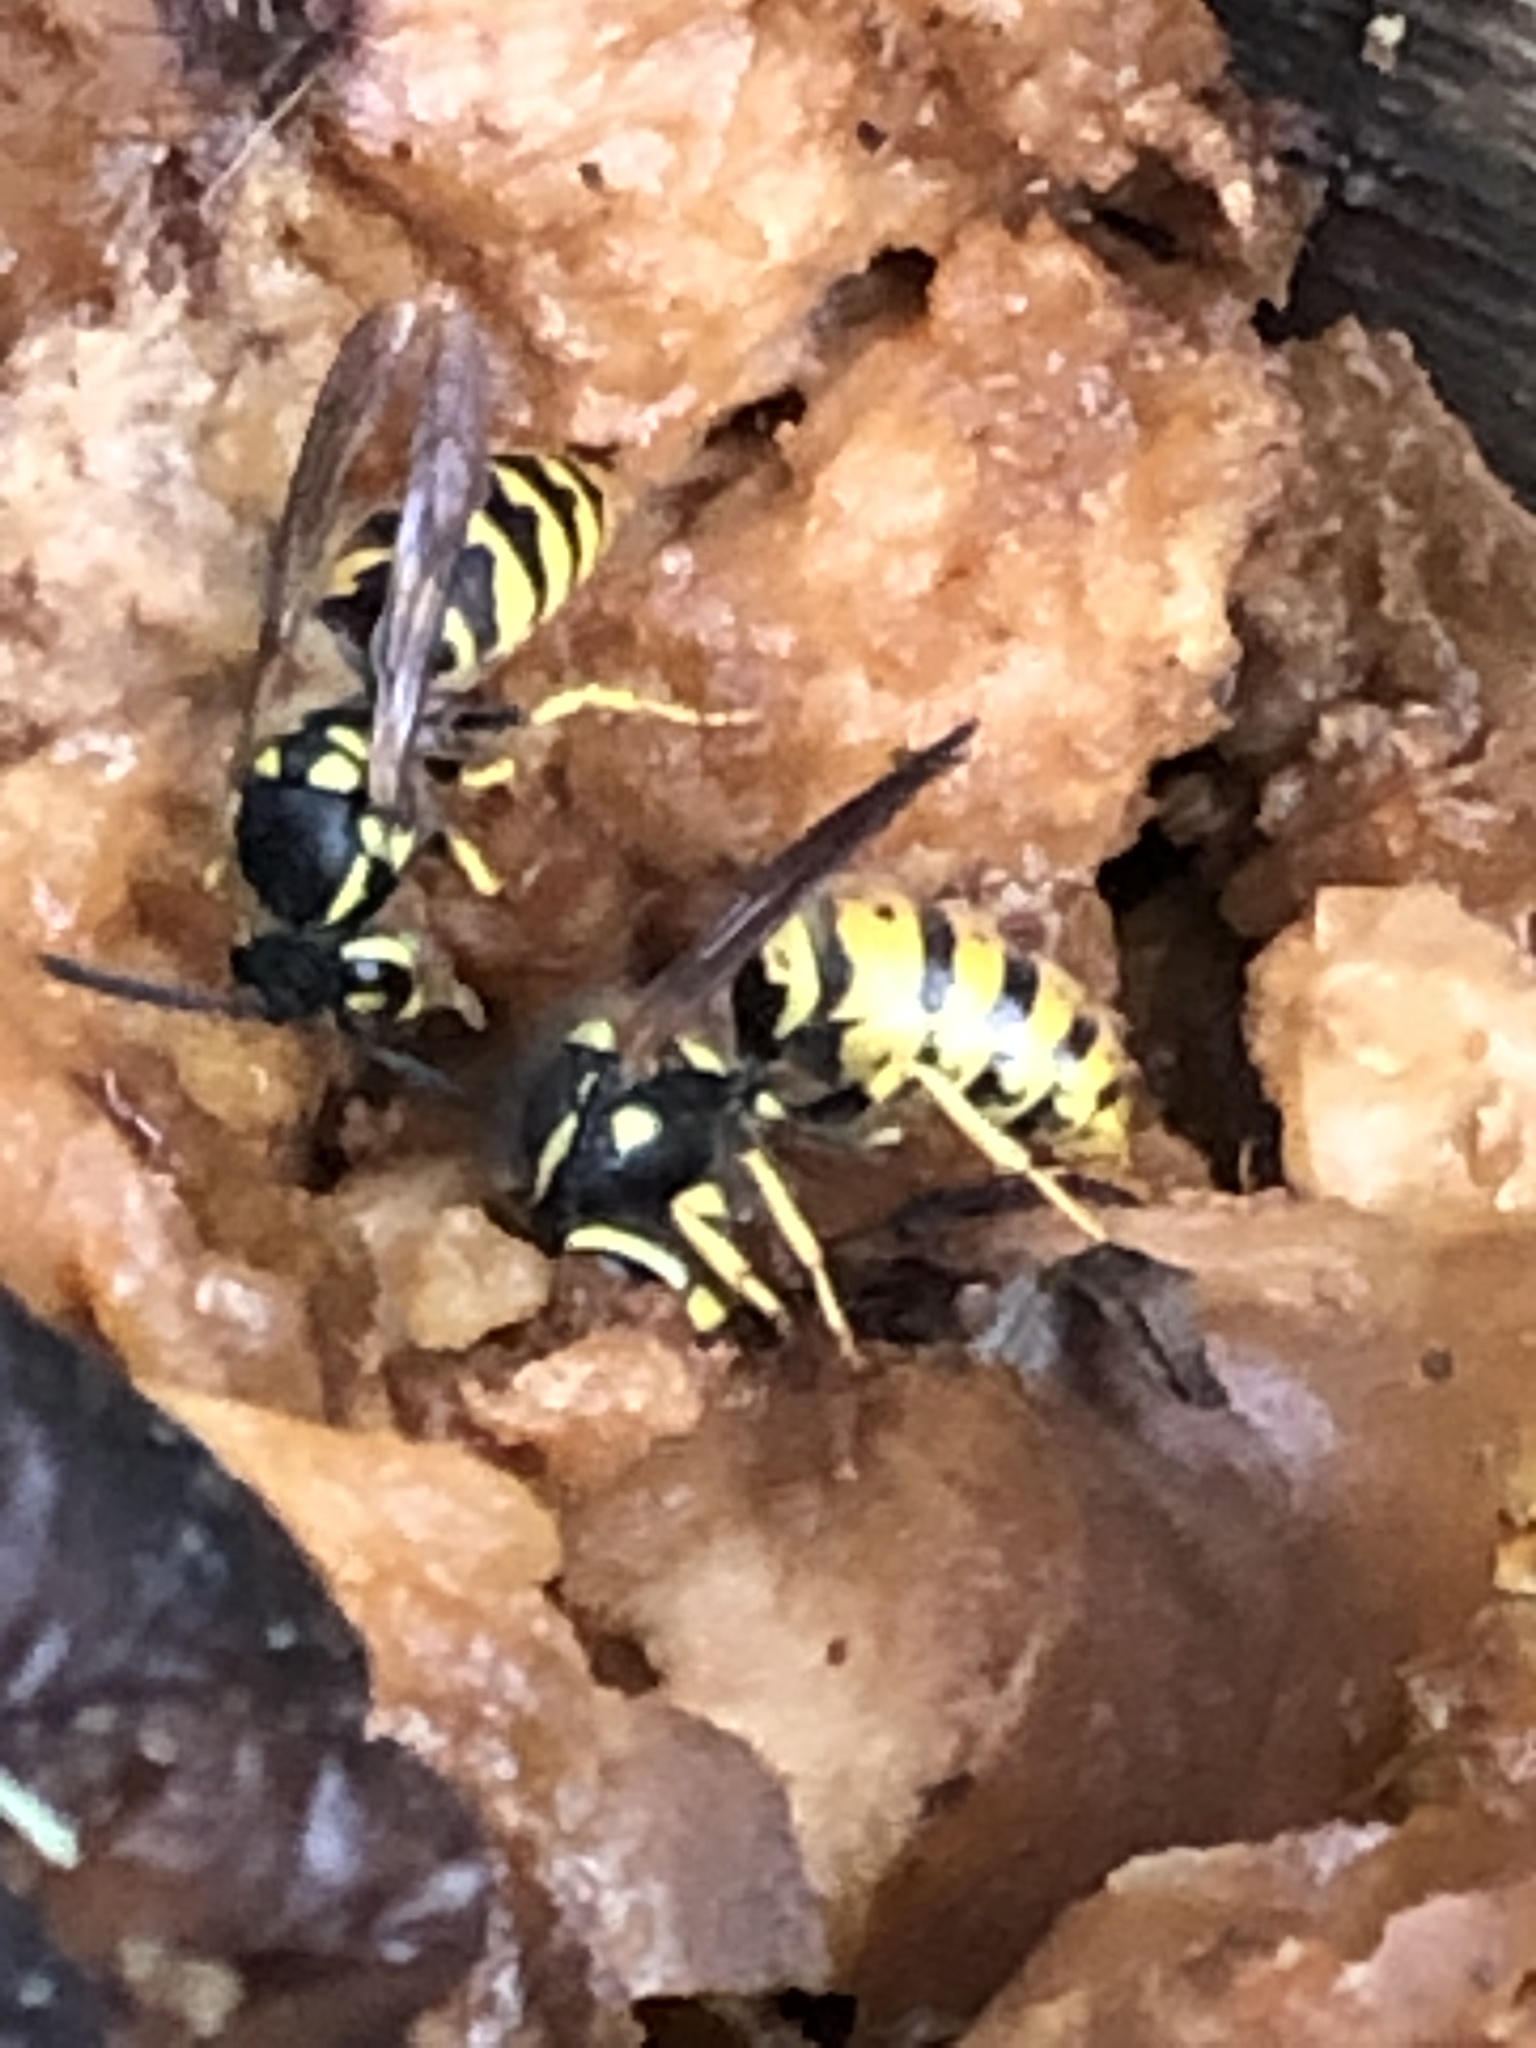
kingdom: Animalia
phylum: Arthropoda
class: Insecta
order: Hymenoptera
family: Vespidae
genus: Vespula
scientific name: Vespula germanica
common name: German wasp
